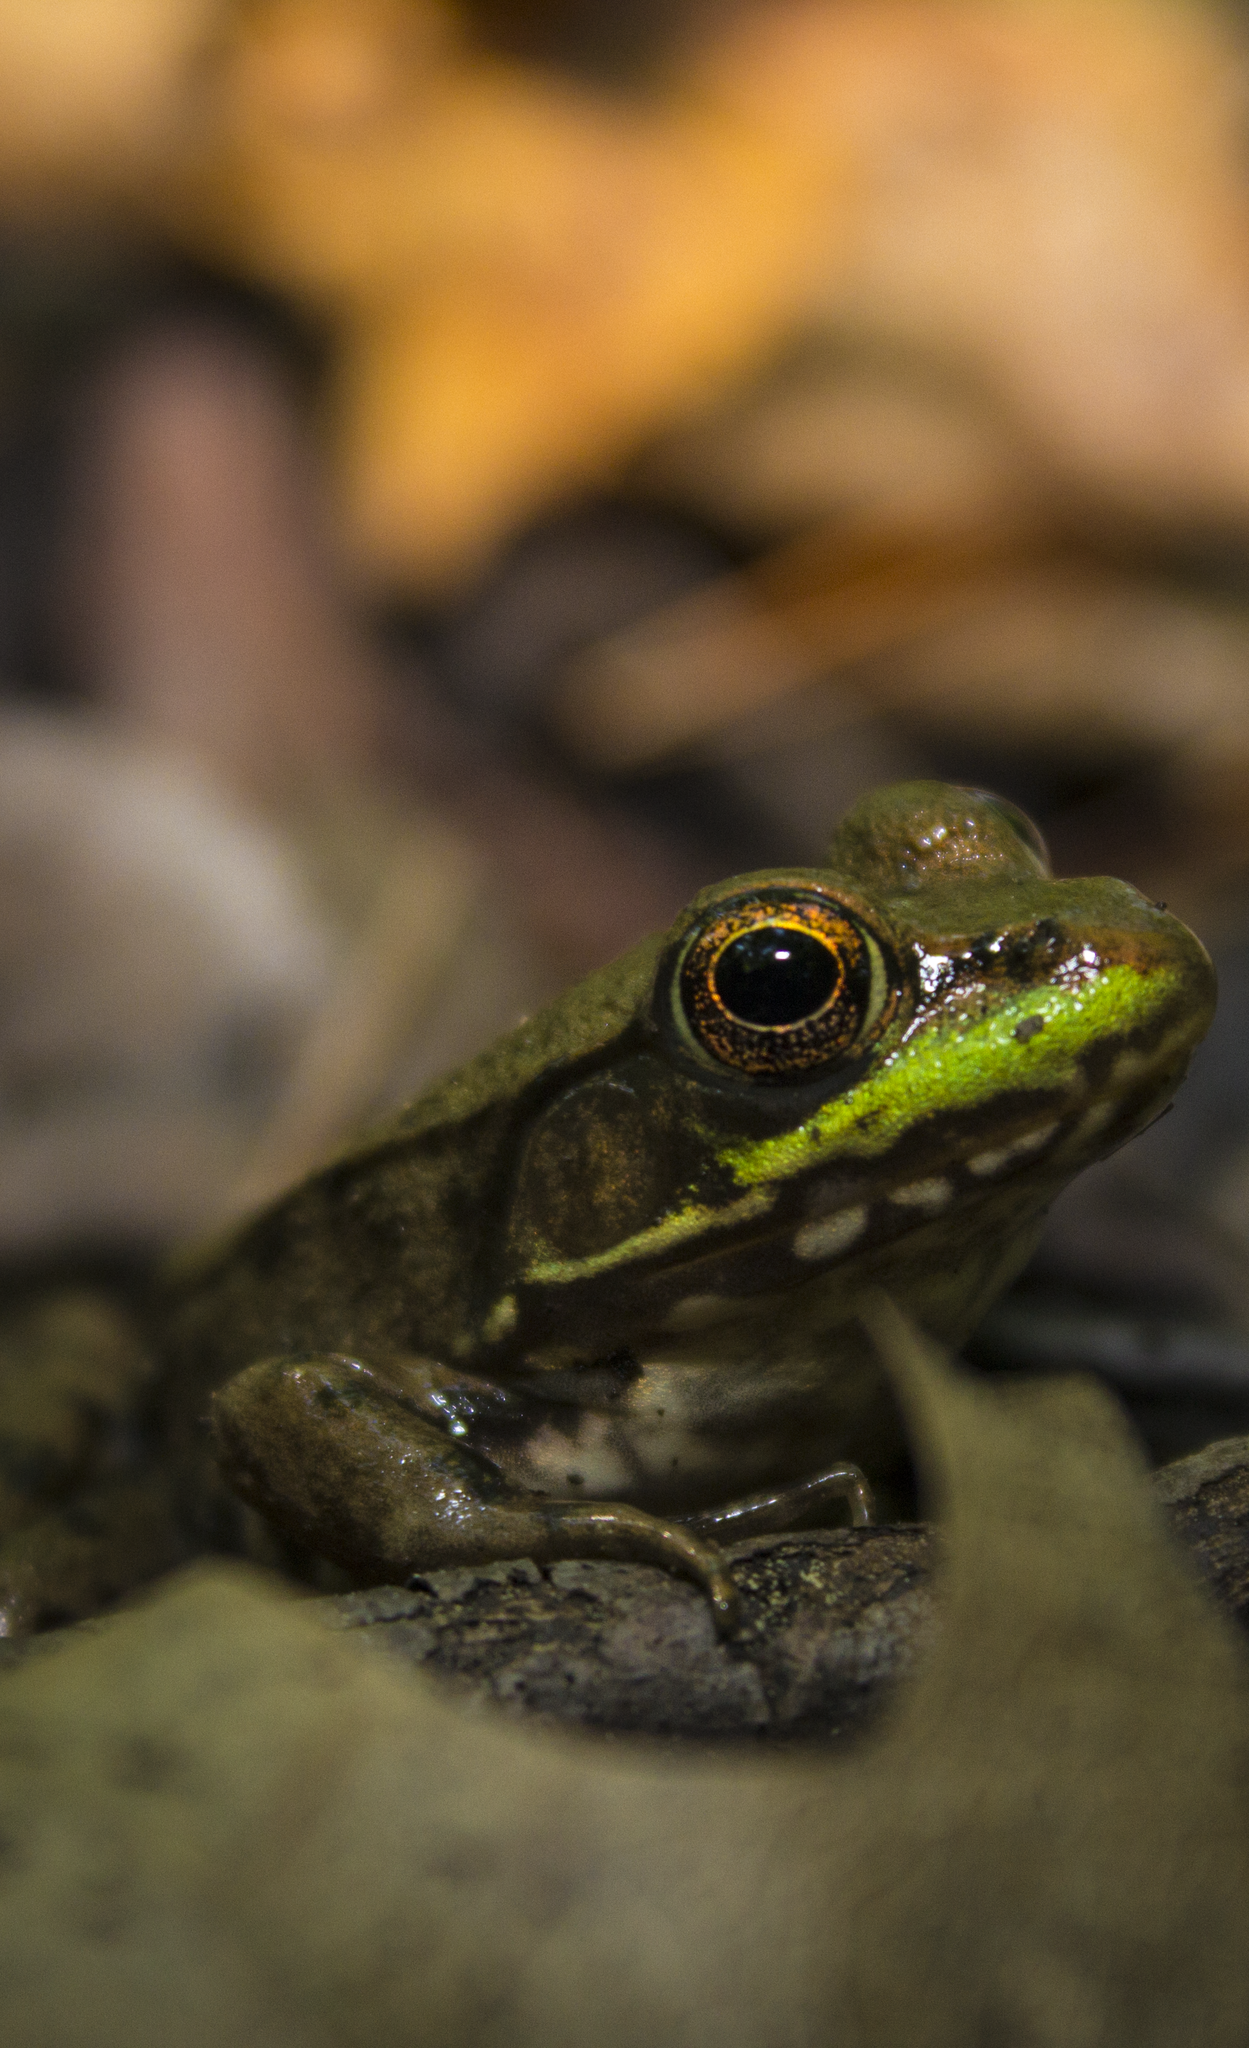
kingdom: Animalia
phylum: Chordata
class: Amphibia
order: Anura
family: Ranidae
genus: Lithobates
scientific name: Lithobates clamitans
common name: Green frog
